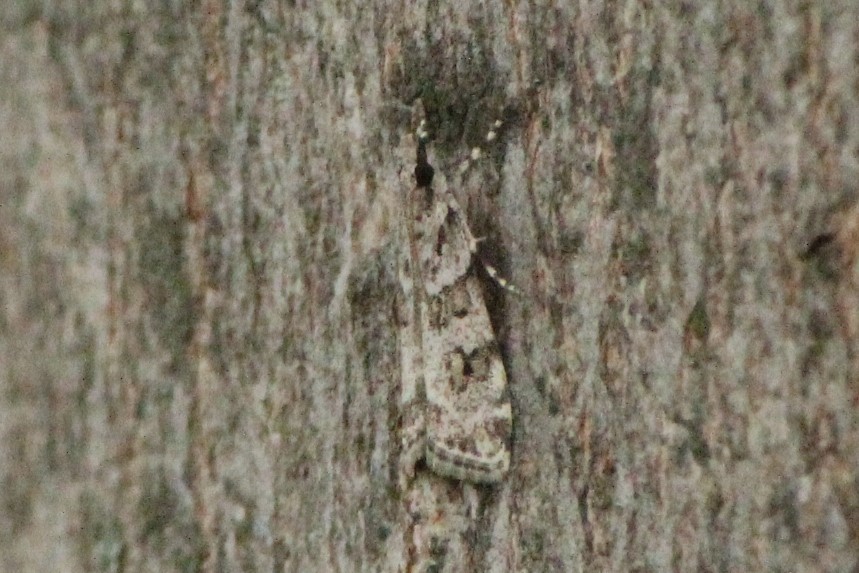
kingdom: Animalia
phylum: Arthropoda
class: Insecta
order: Lepidoptera
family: Crambidae
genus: Scoparia
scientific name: Scoparia biplagialis
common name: Double-striped scoparia moth
